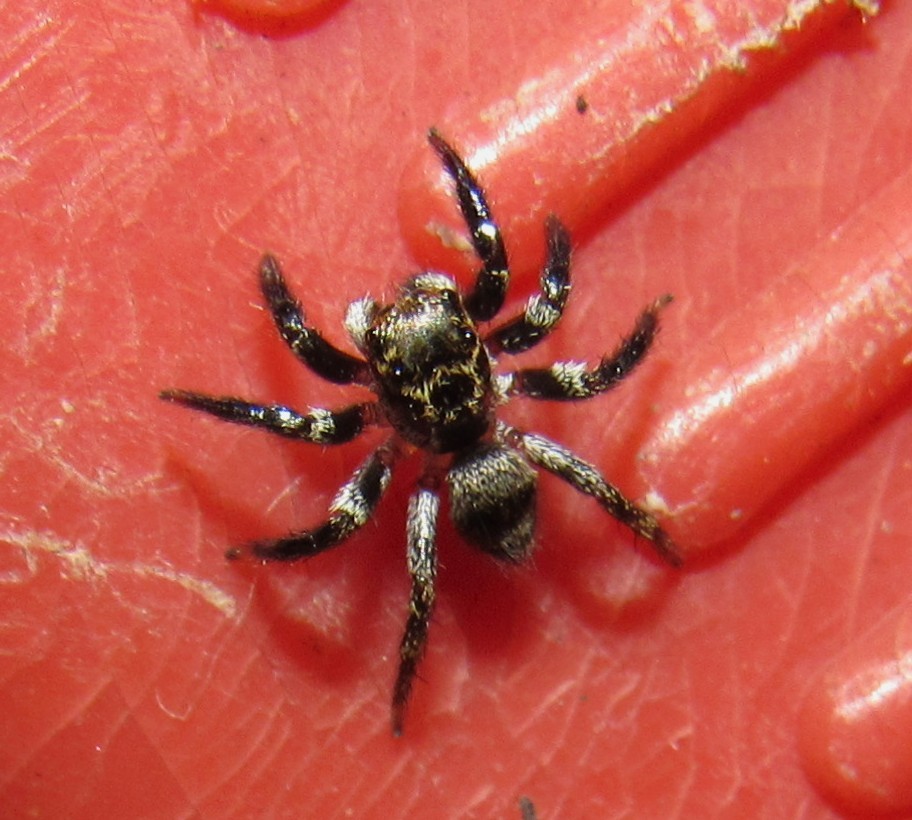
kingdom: Animalia
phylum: Arthropoda
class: Arachnida
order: Araneae
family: Salticidae
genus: Corythalia
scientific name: Corythalia conferta
